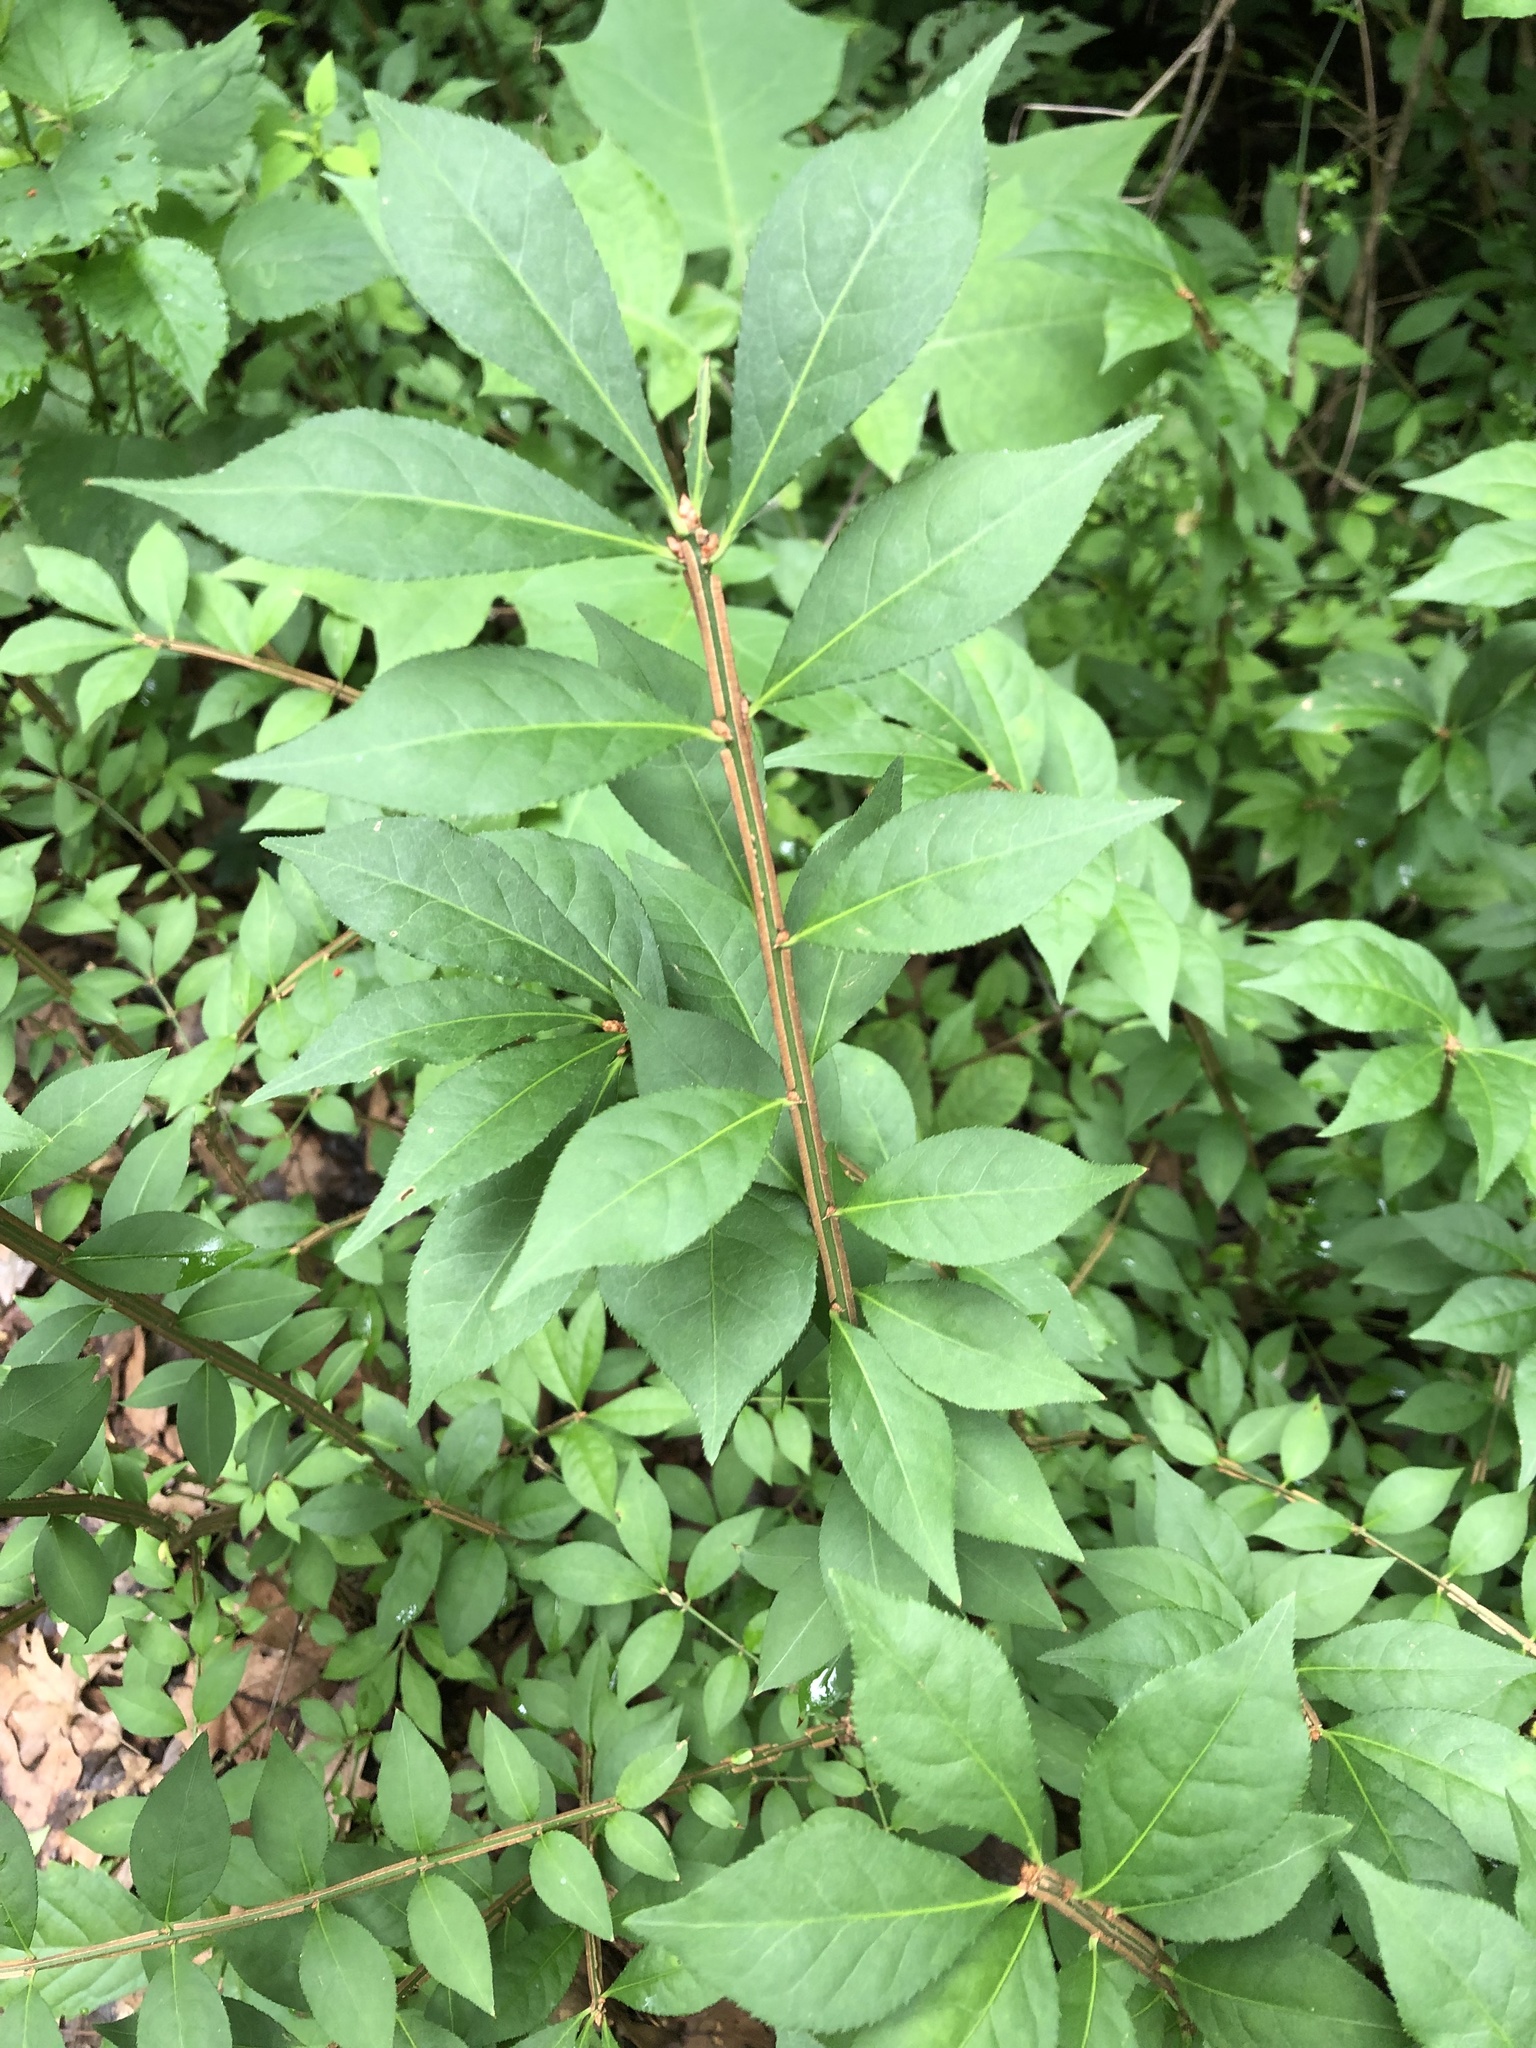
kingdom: Plantae
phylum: Tracheophyta
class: Magnoliopsida
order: Celastrales
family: Celastraceae
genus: Euonymus
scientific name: Euonymus alatus
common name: Winged euonymus
